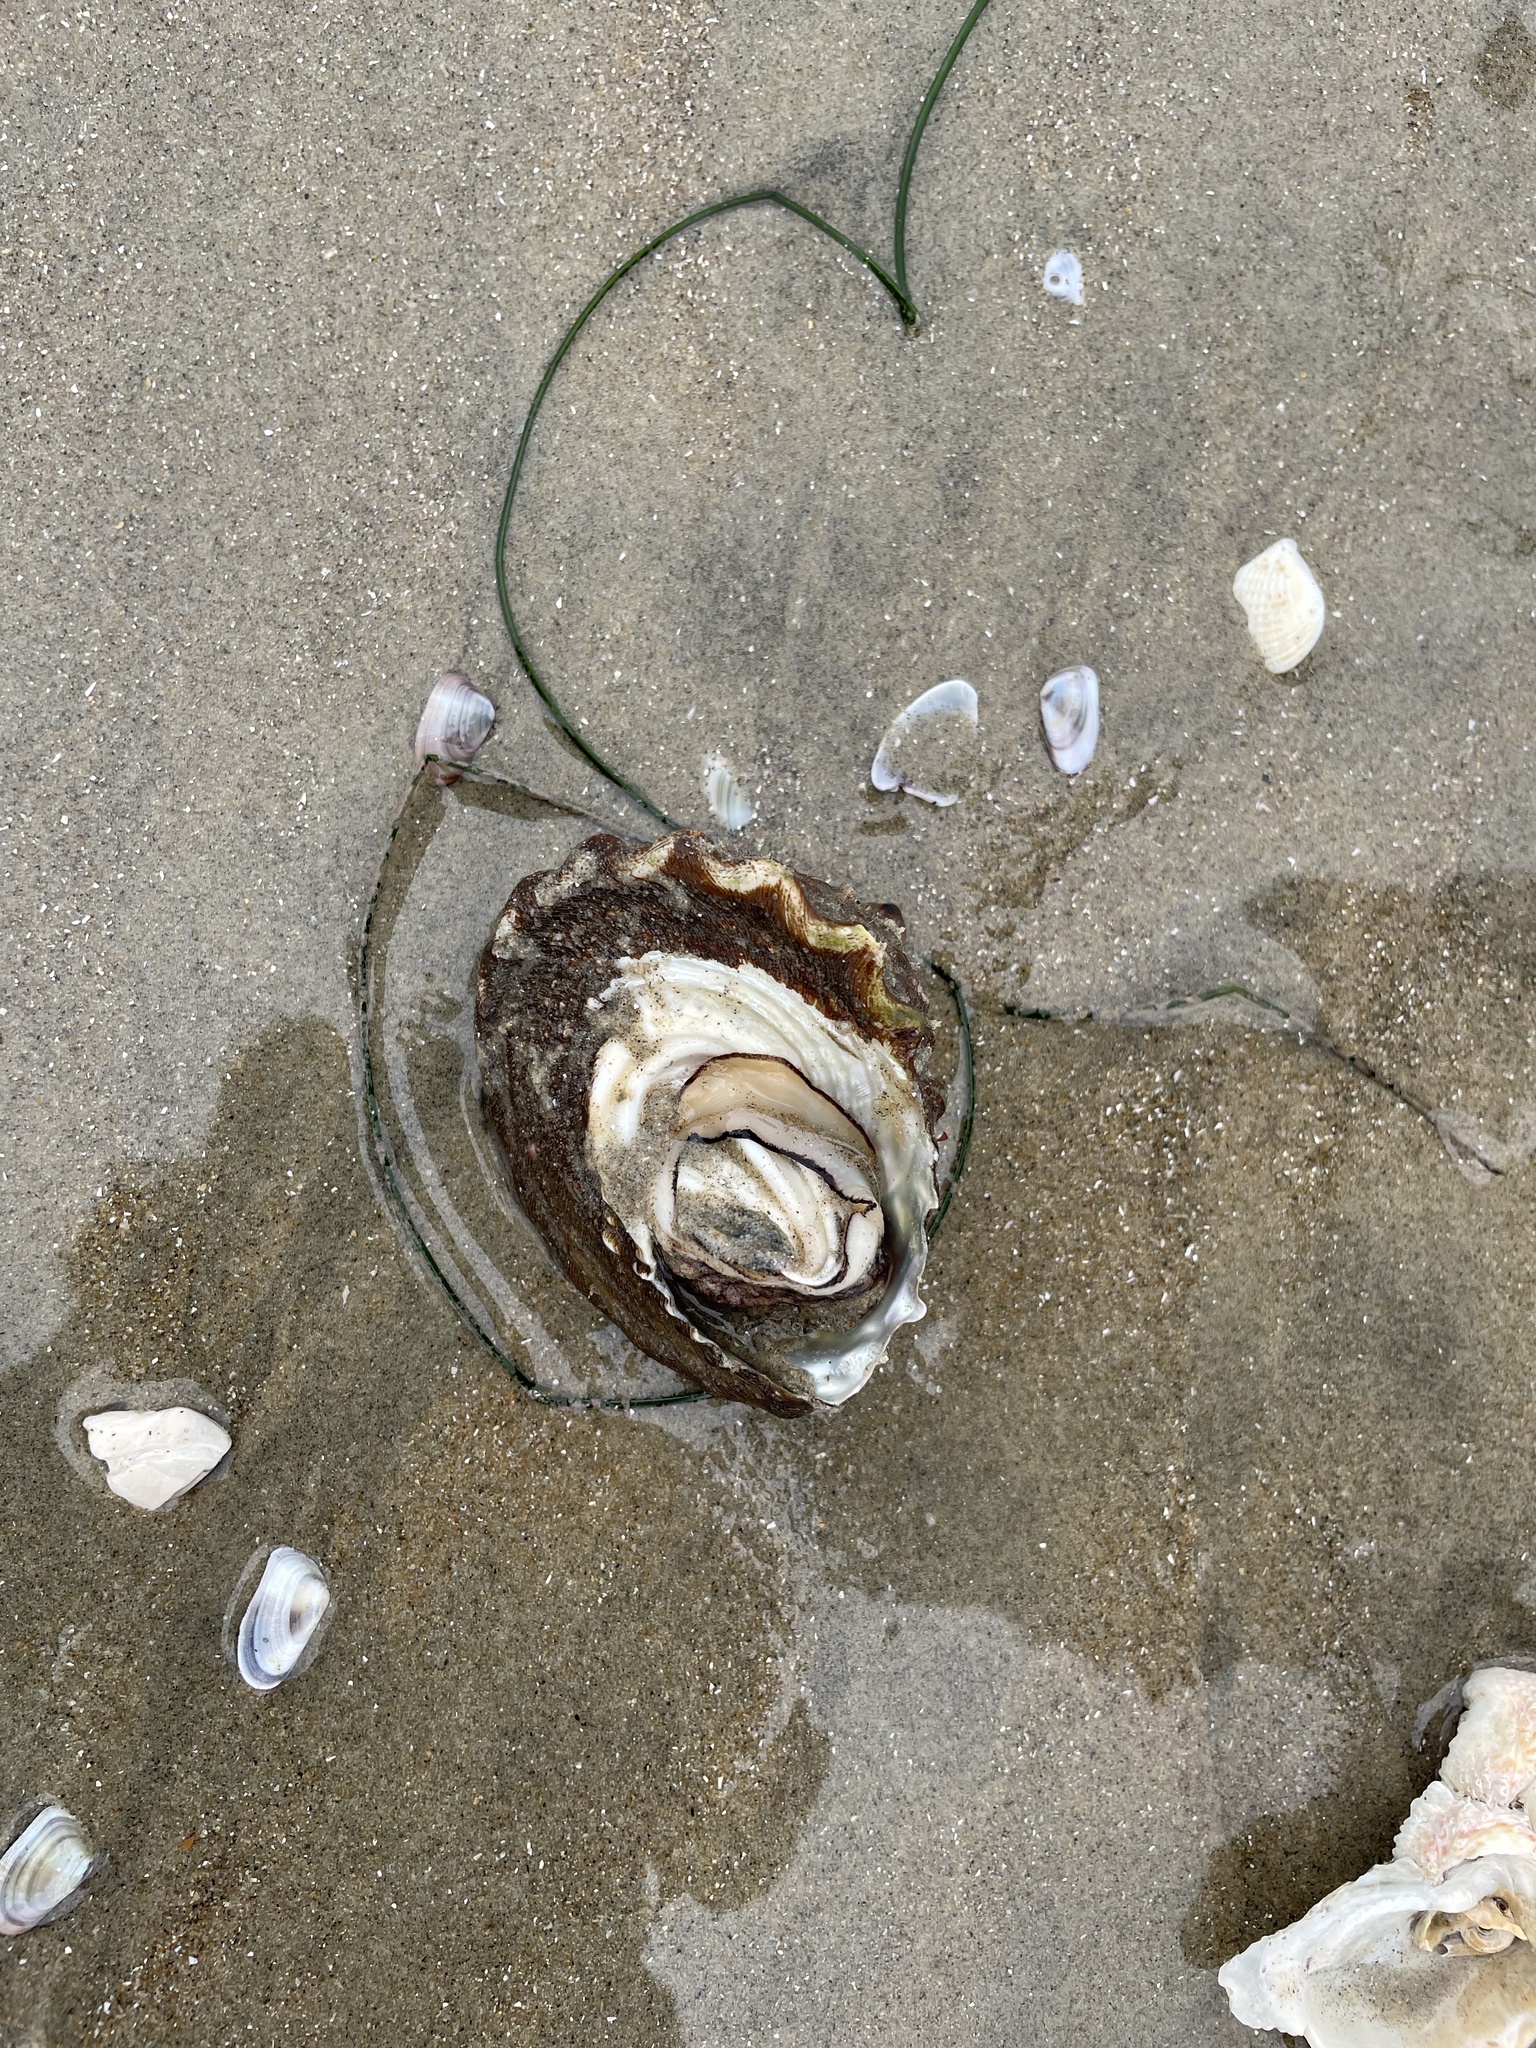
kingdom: Animalia
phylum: Mollusca
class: Gastropoda
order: Trochida
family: Turbinidae
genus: Megastraea
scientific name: Megastraea undosa
